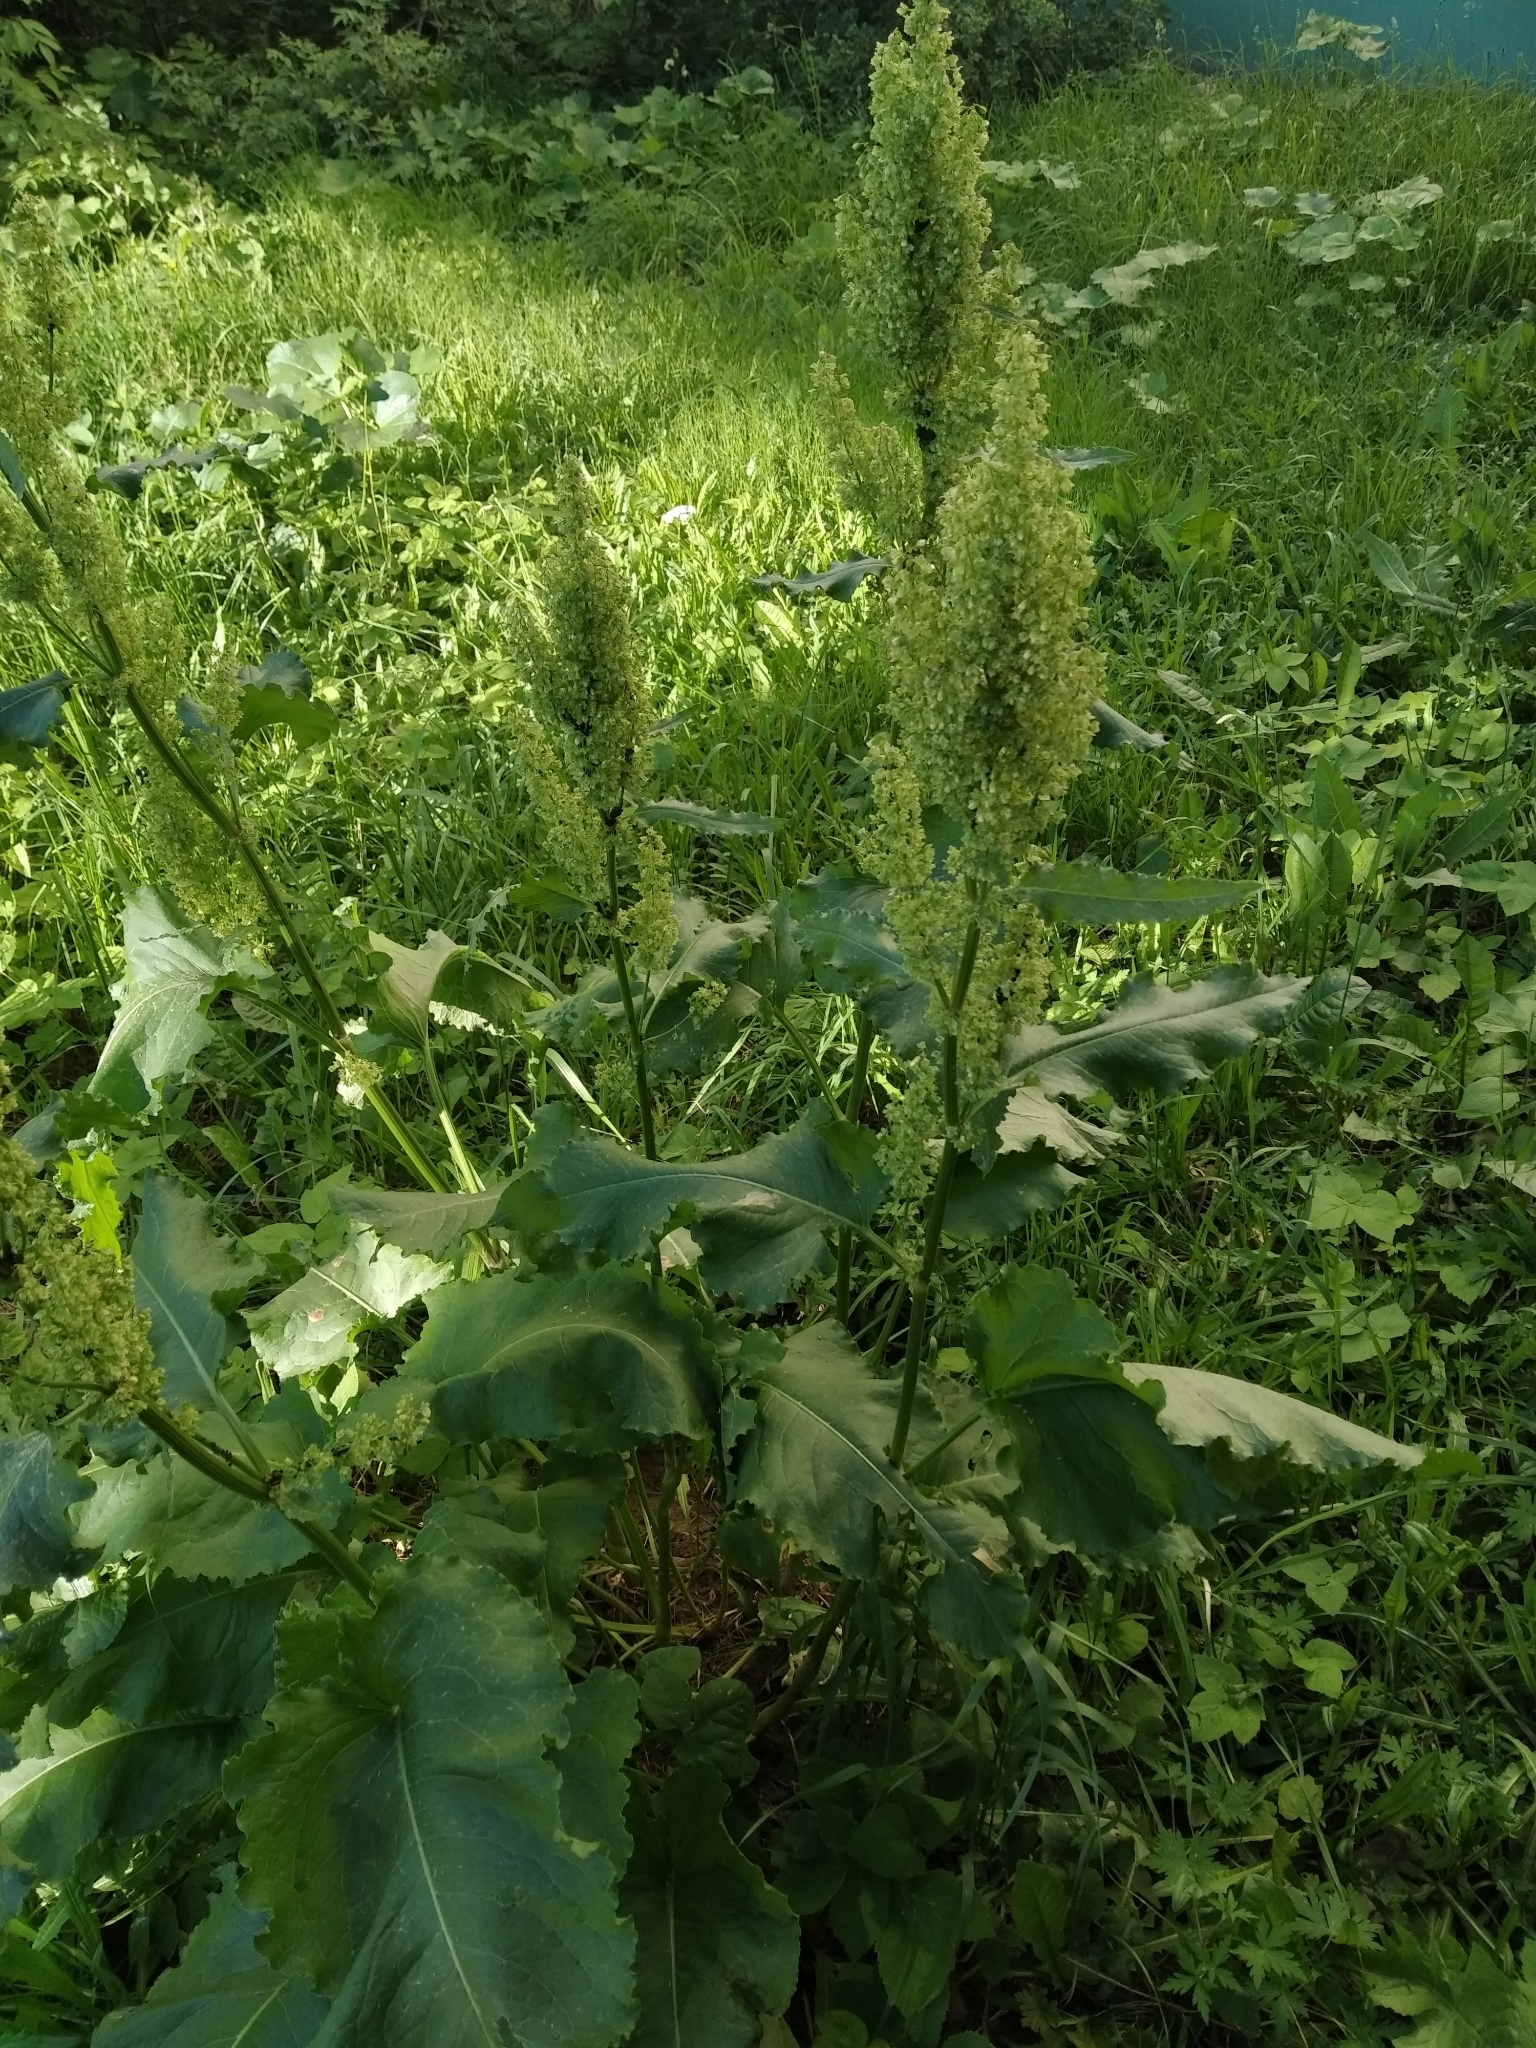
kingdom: Plantae
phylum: Tracheophyta
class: Magnoliopsida
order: Caryophyllales
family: Polygonaceae
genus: Rumex
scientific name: Rumex confertus
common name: Russian dock
